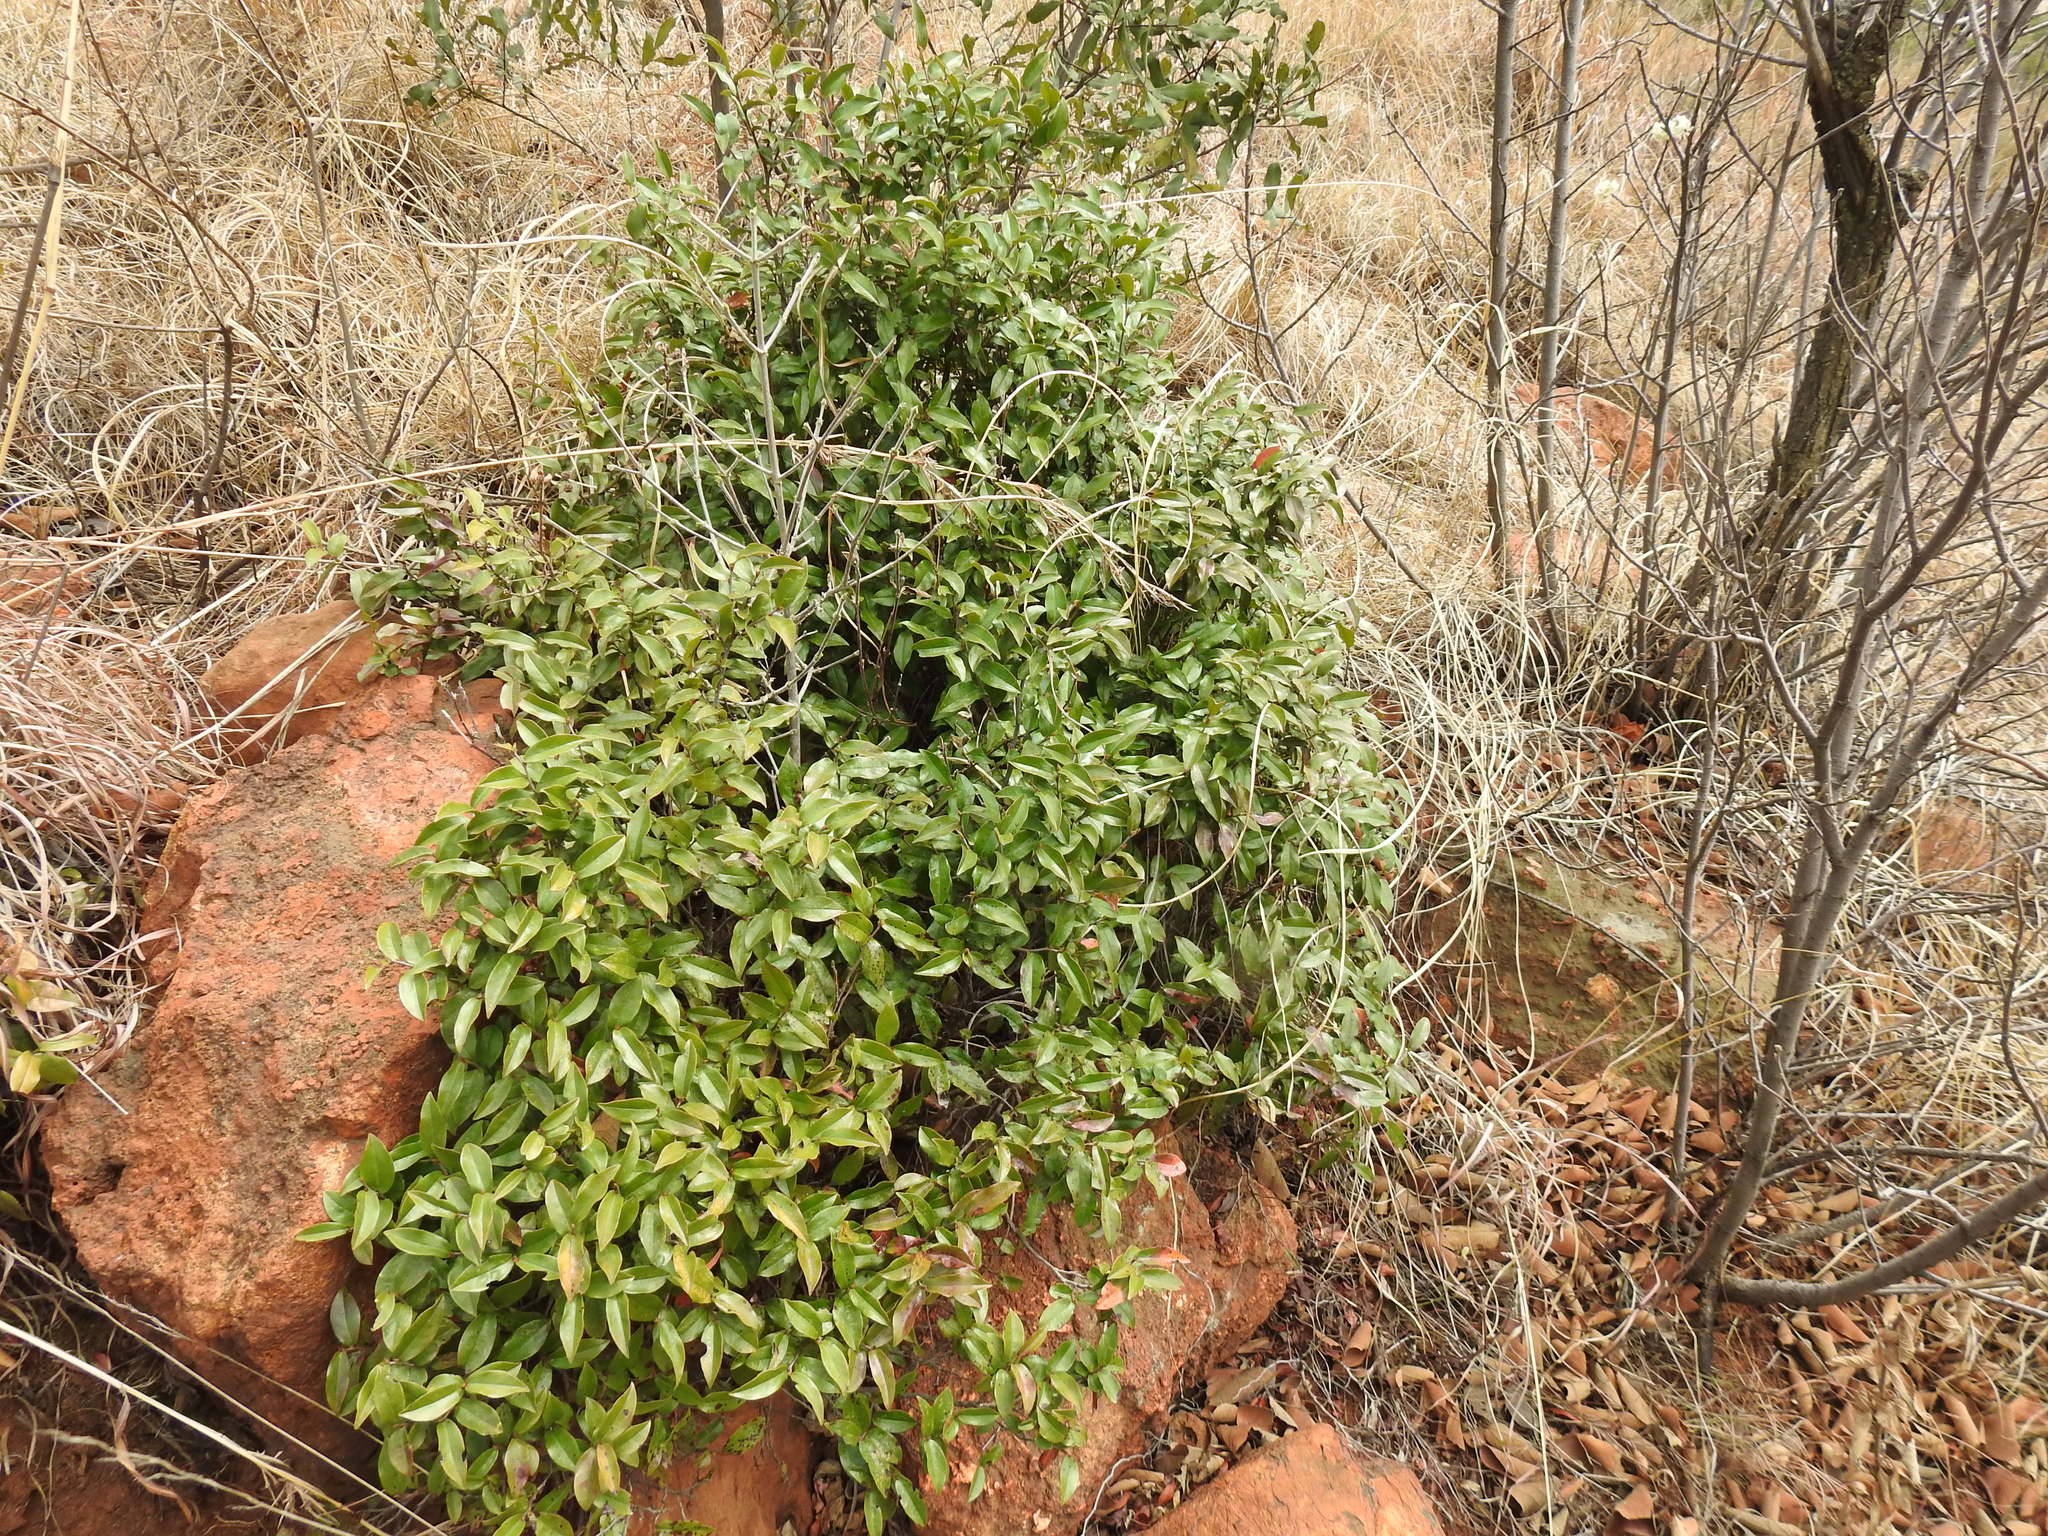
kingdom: Plantae
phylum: Tracheophyta
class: Magnoliopsida
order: Ericales
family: Ebenaceae
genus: Diospyros
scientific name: Diospyros whyteana
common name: Bladder-nut
